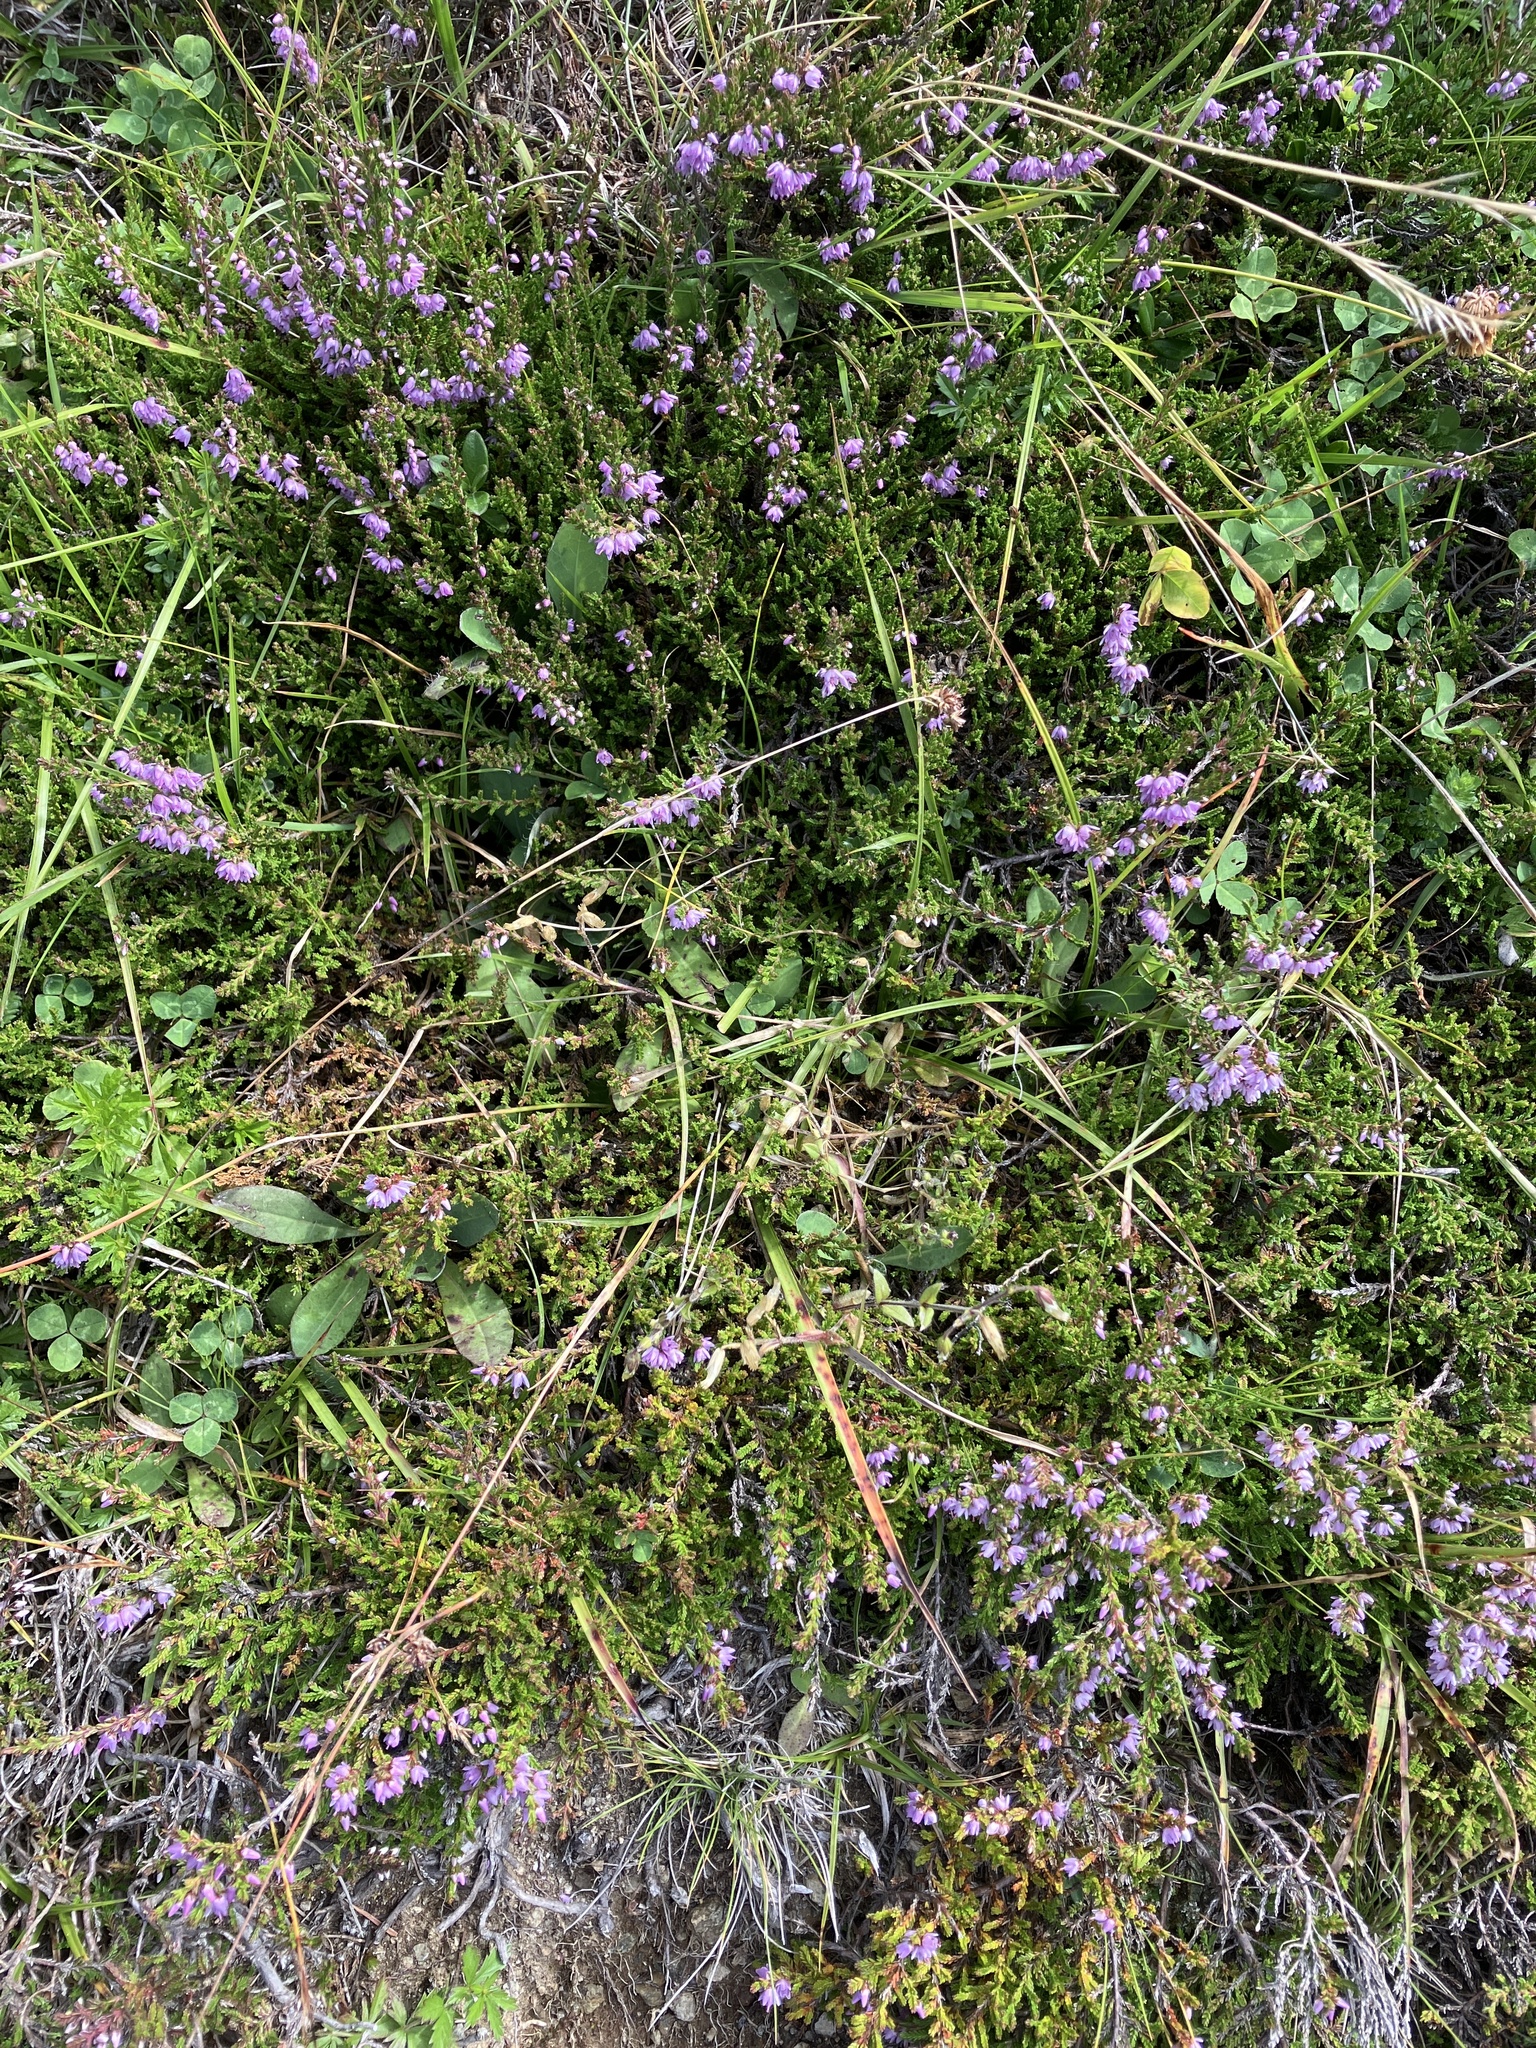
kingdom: Plantae
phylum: Tracheophyta
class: Magnoliopsida
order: Ericales
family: Ericaceae
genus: Calluna
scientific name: Calluna vulgaris
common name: Heather
